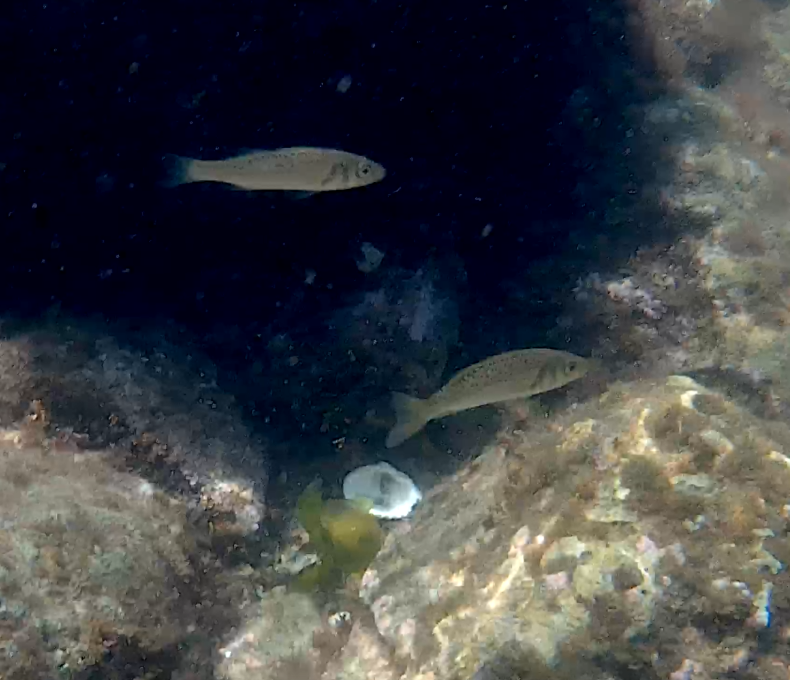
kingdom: Animalia
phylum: Chordata
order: Perciformes
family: Moronidae
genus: Dicentrarchus
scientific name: Dicentrarchus labrax
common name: European seabass
